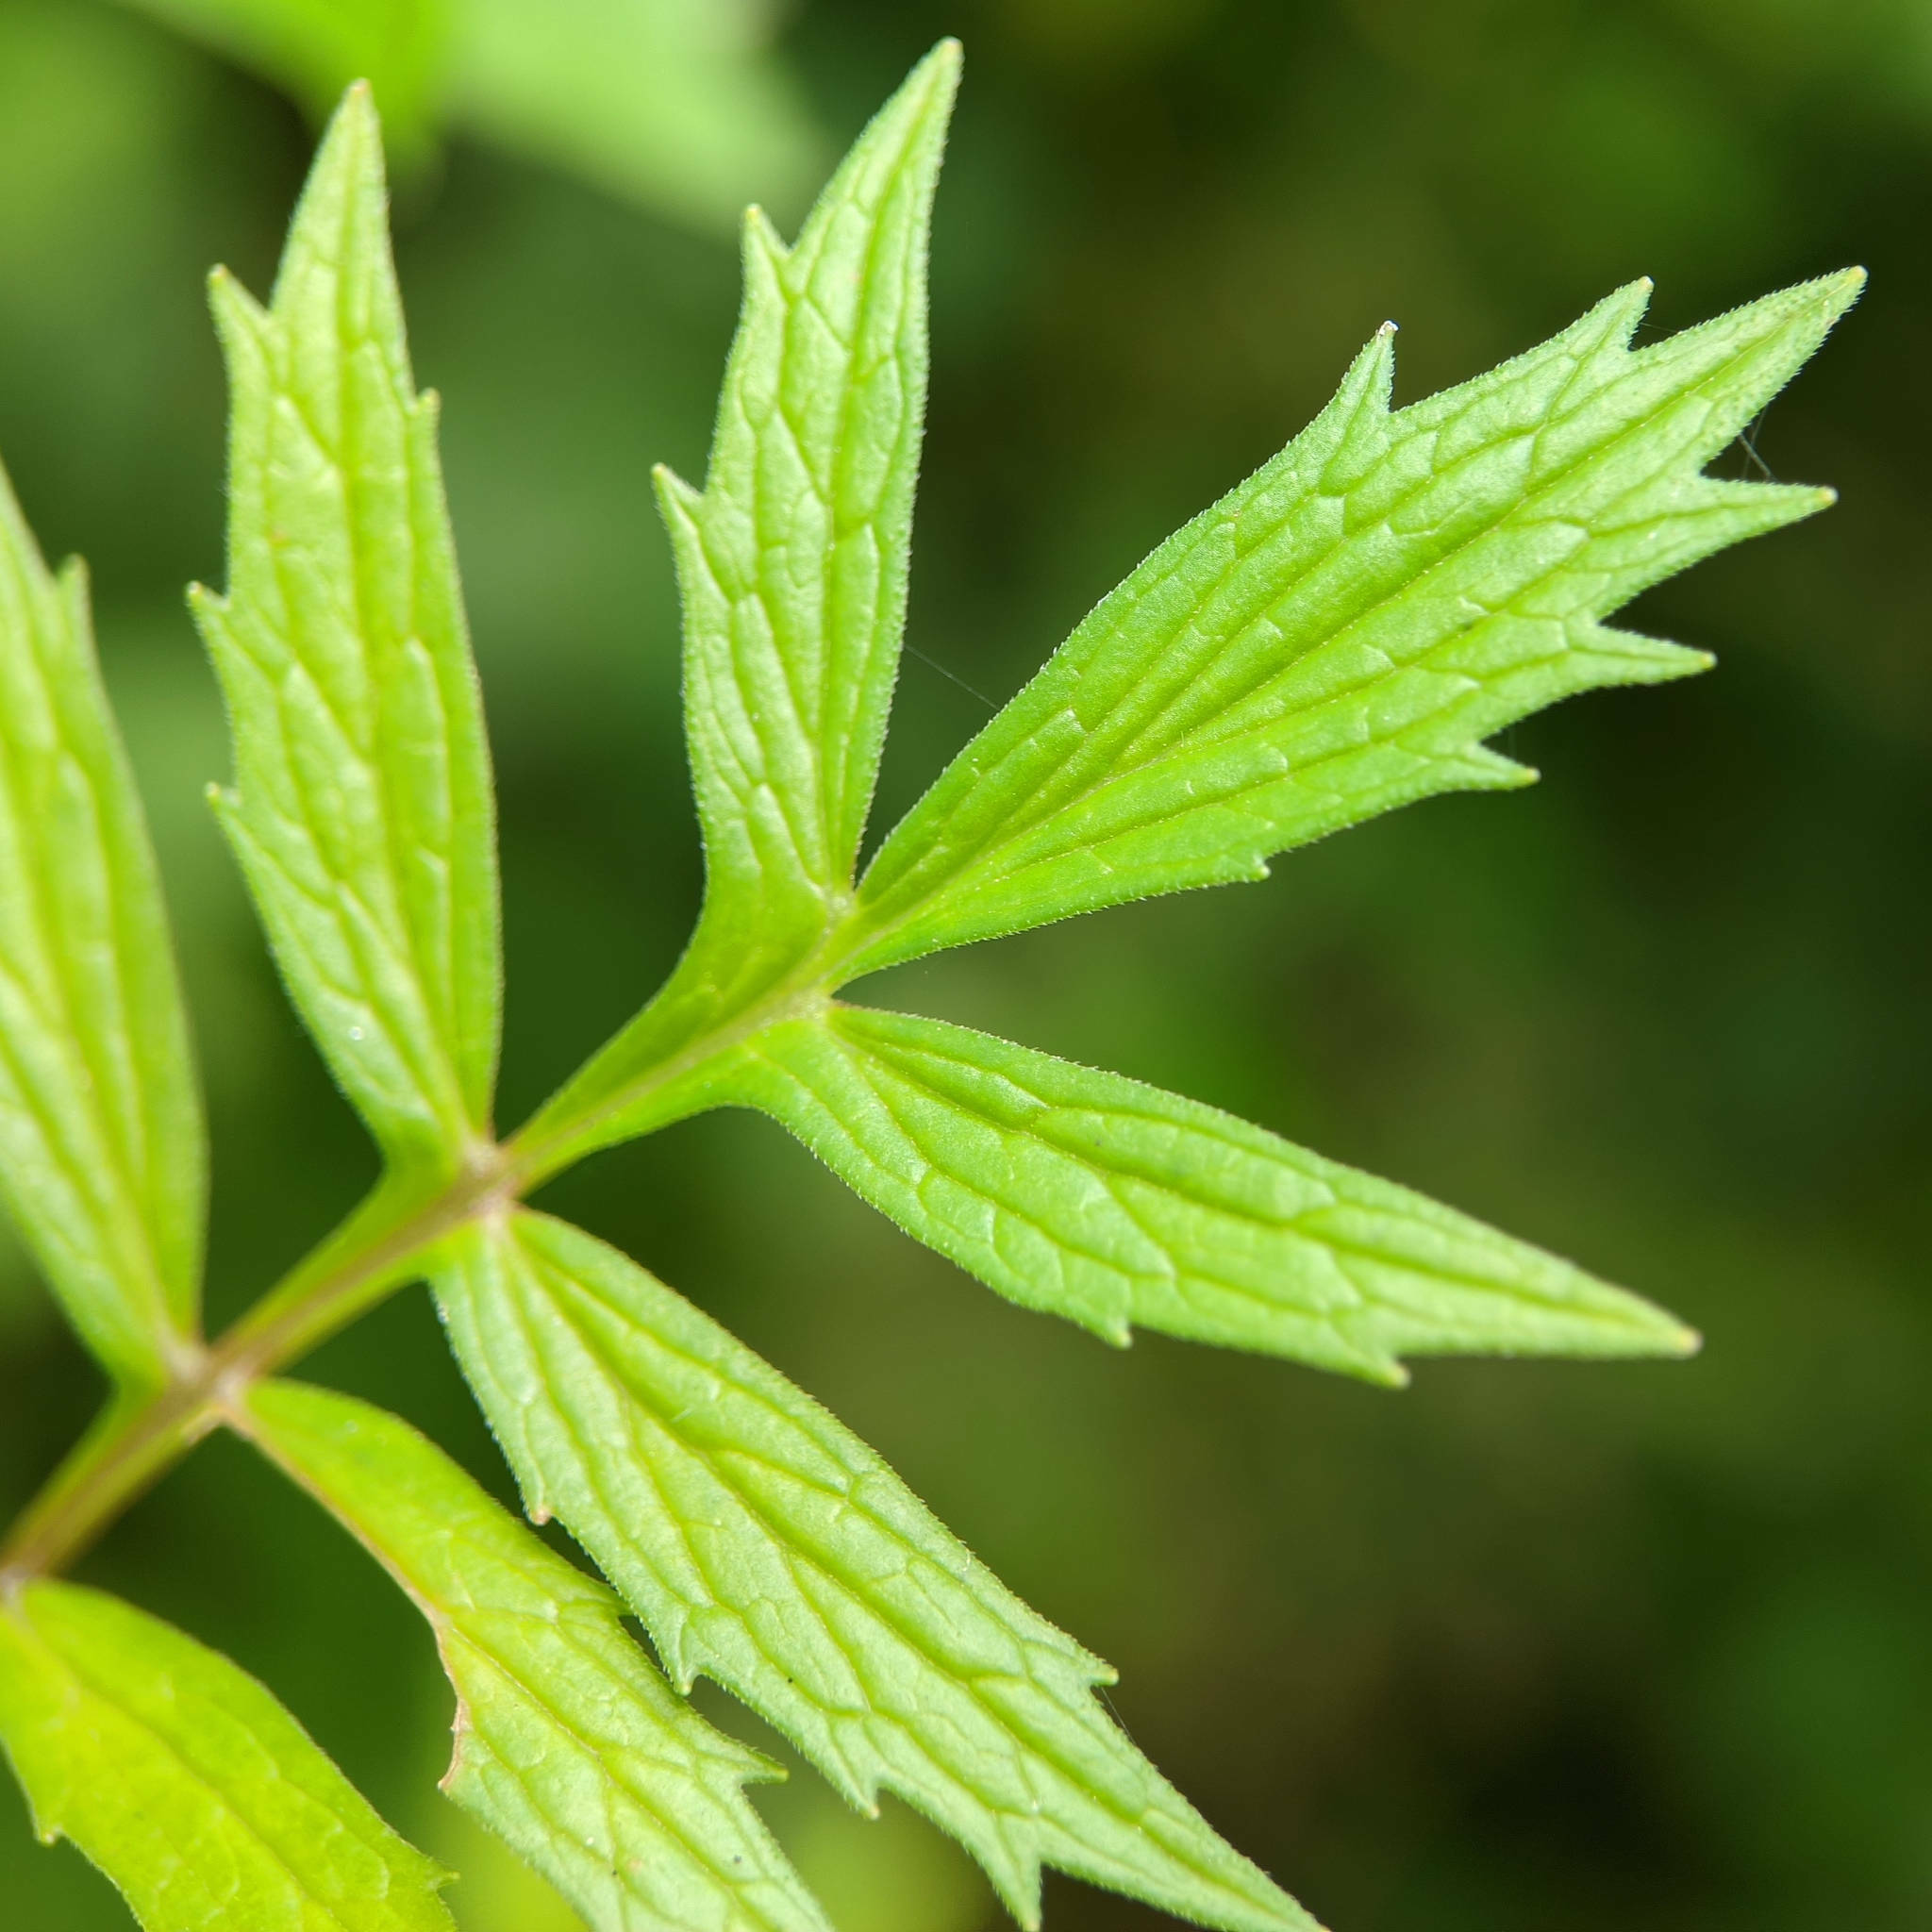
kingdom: Plantae
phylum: Tracheophyta
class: Magnoliopsida
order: Dipsacales
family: Caprifoliaceae
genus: Valeriana
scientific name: Valeriana officinalis
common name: Common valerian
